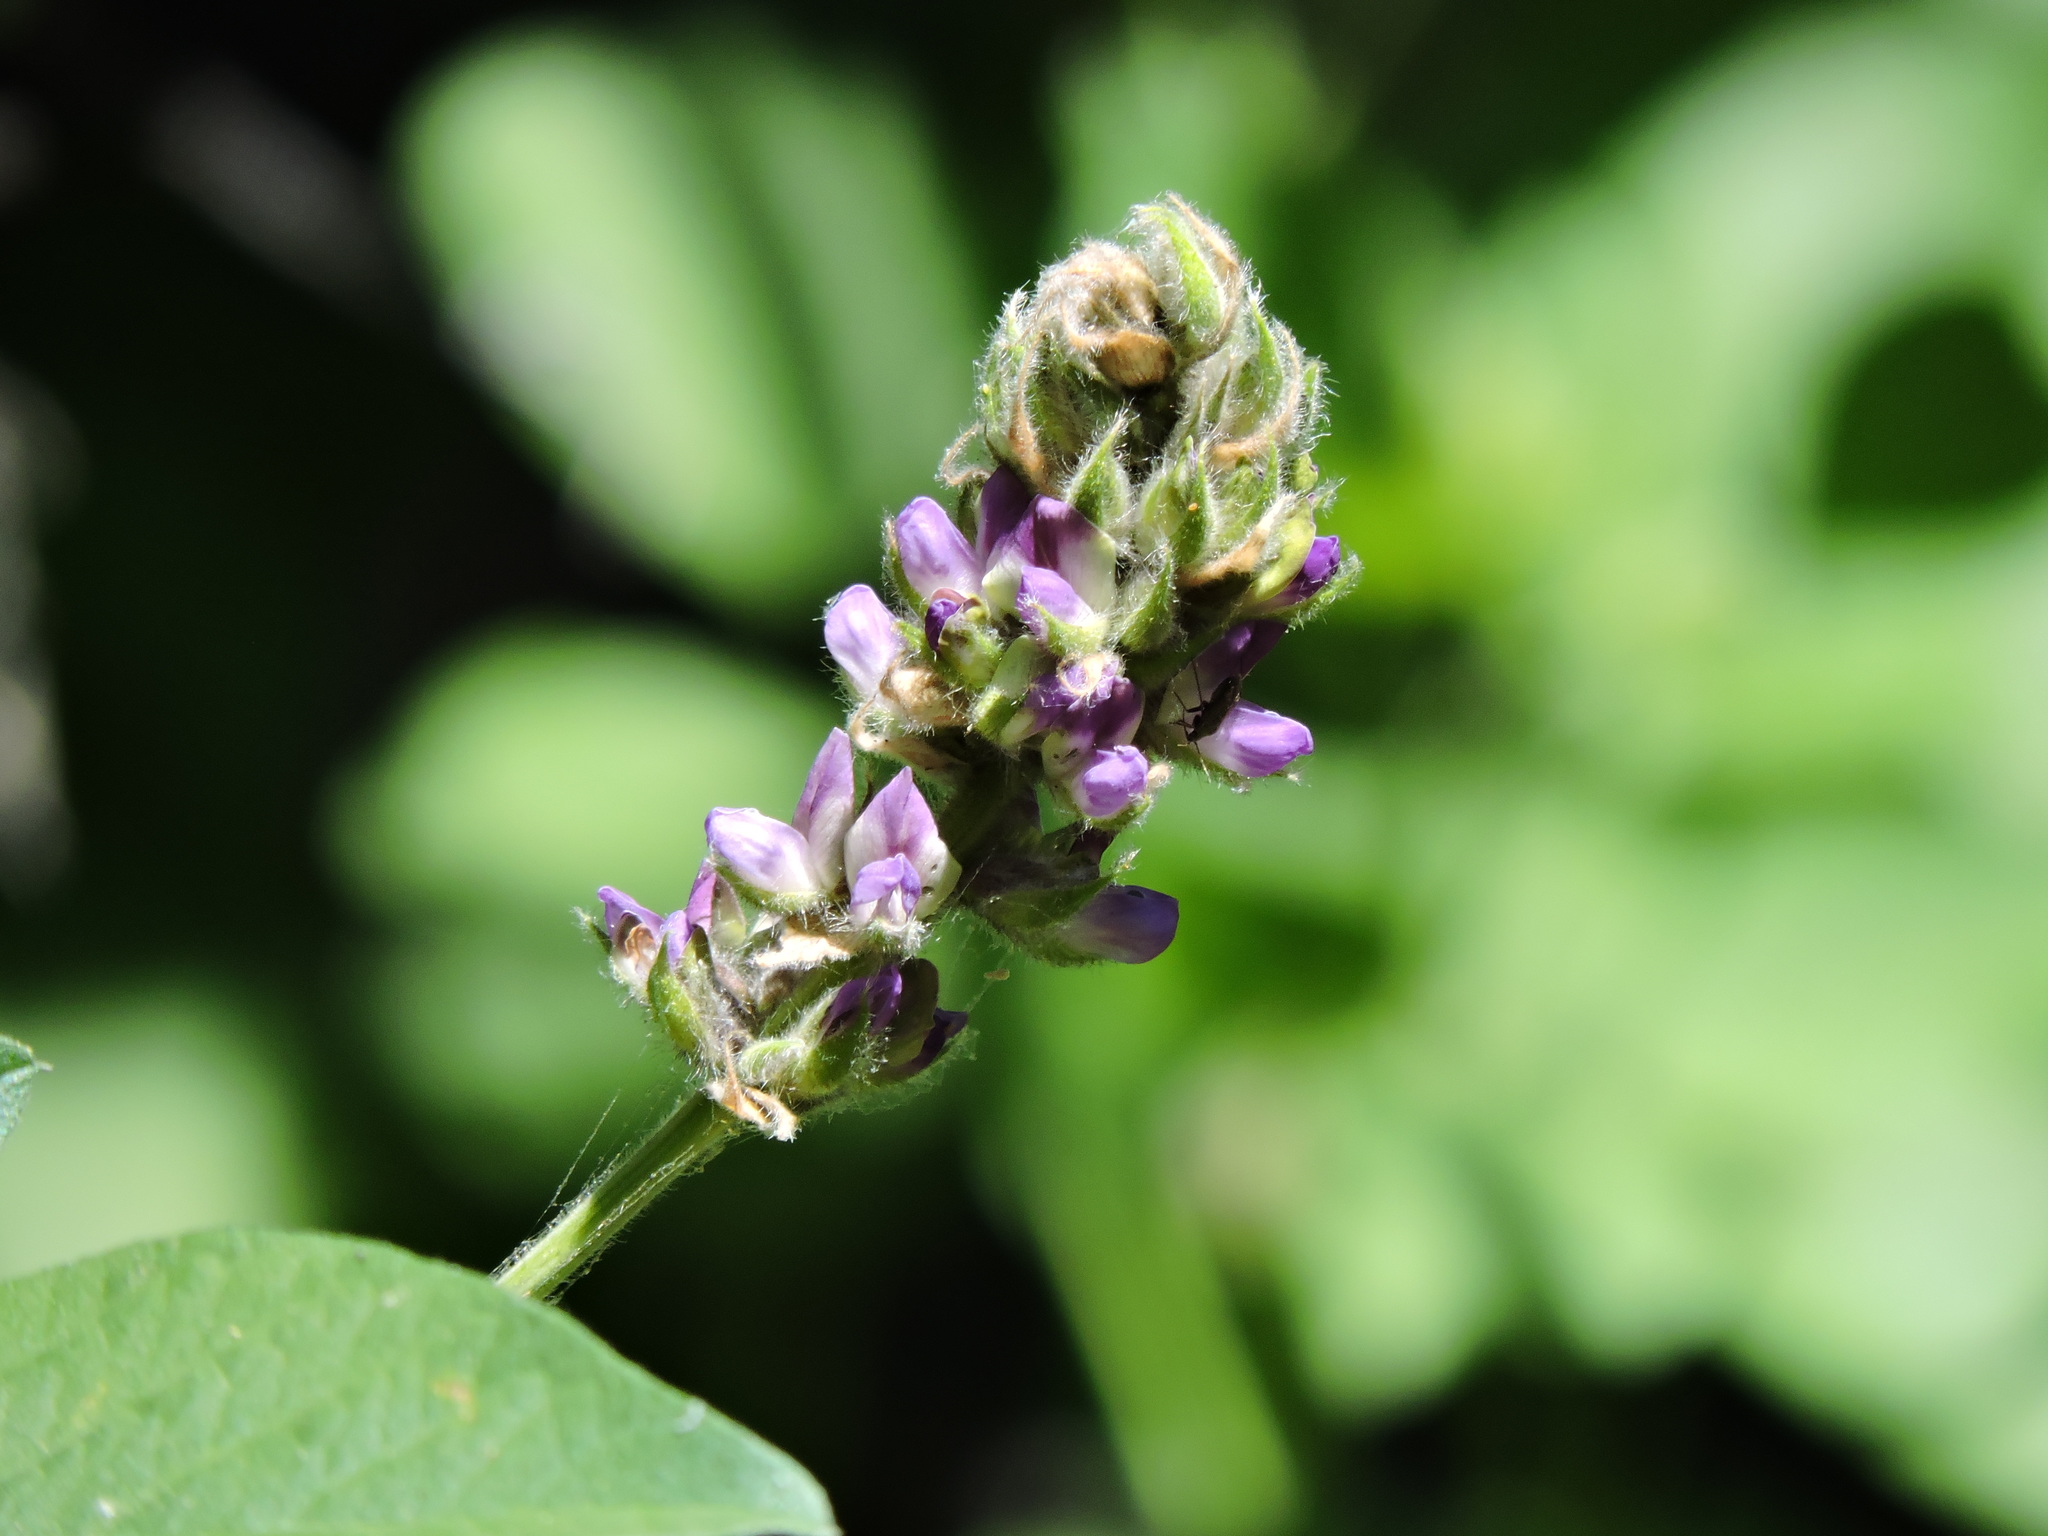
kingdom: Plantae
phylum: Tracheophyta
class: Magnoliopsida
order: Fabales
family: Fabaceae
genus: Hoita
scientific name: Hoita macrostachya
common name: Leatherroot
